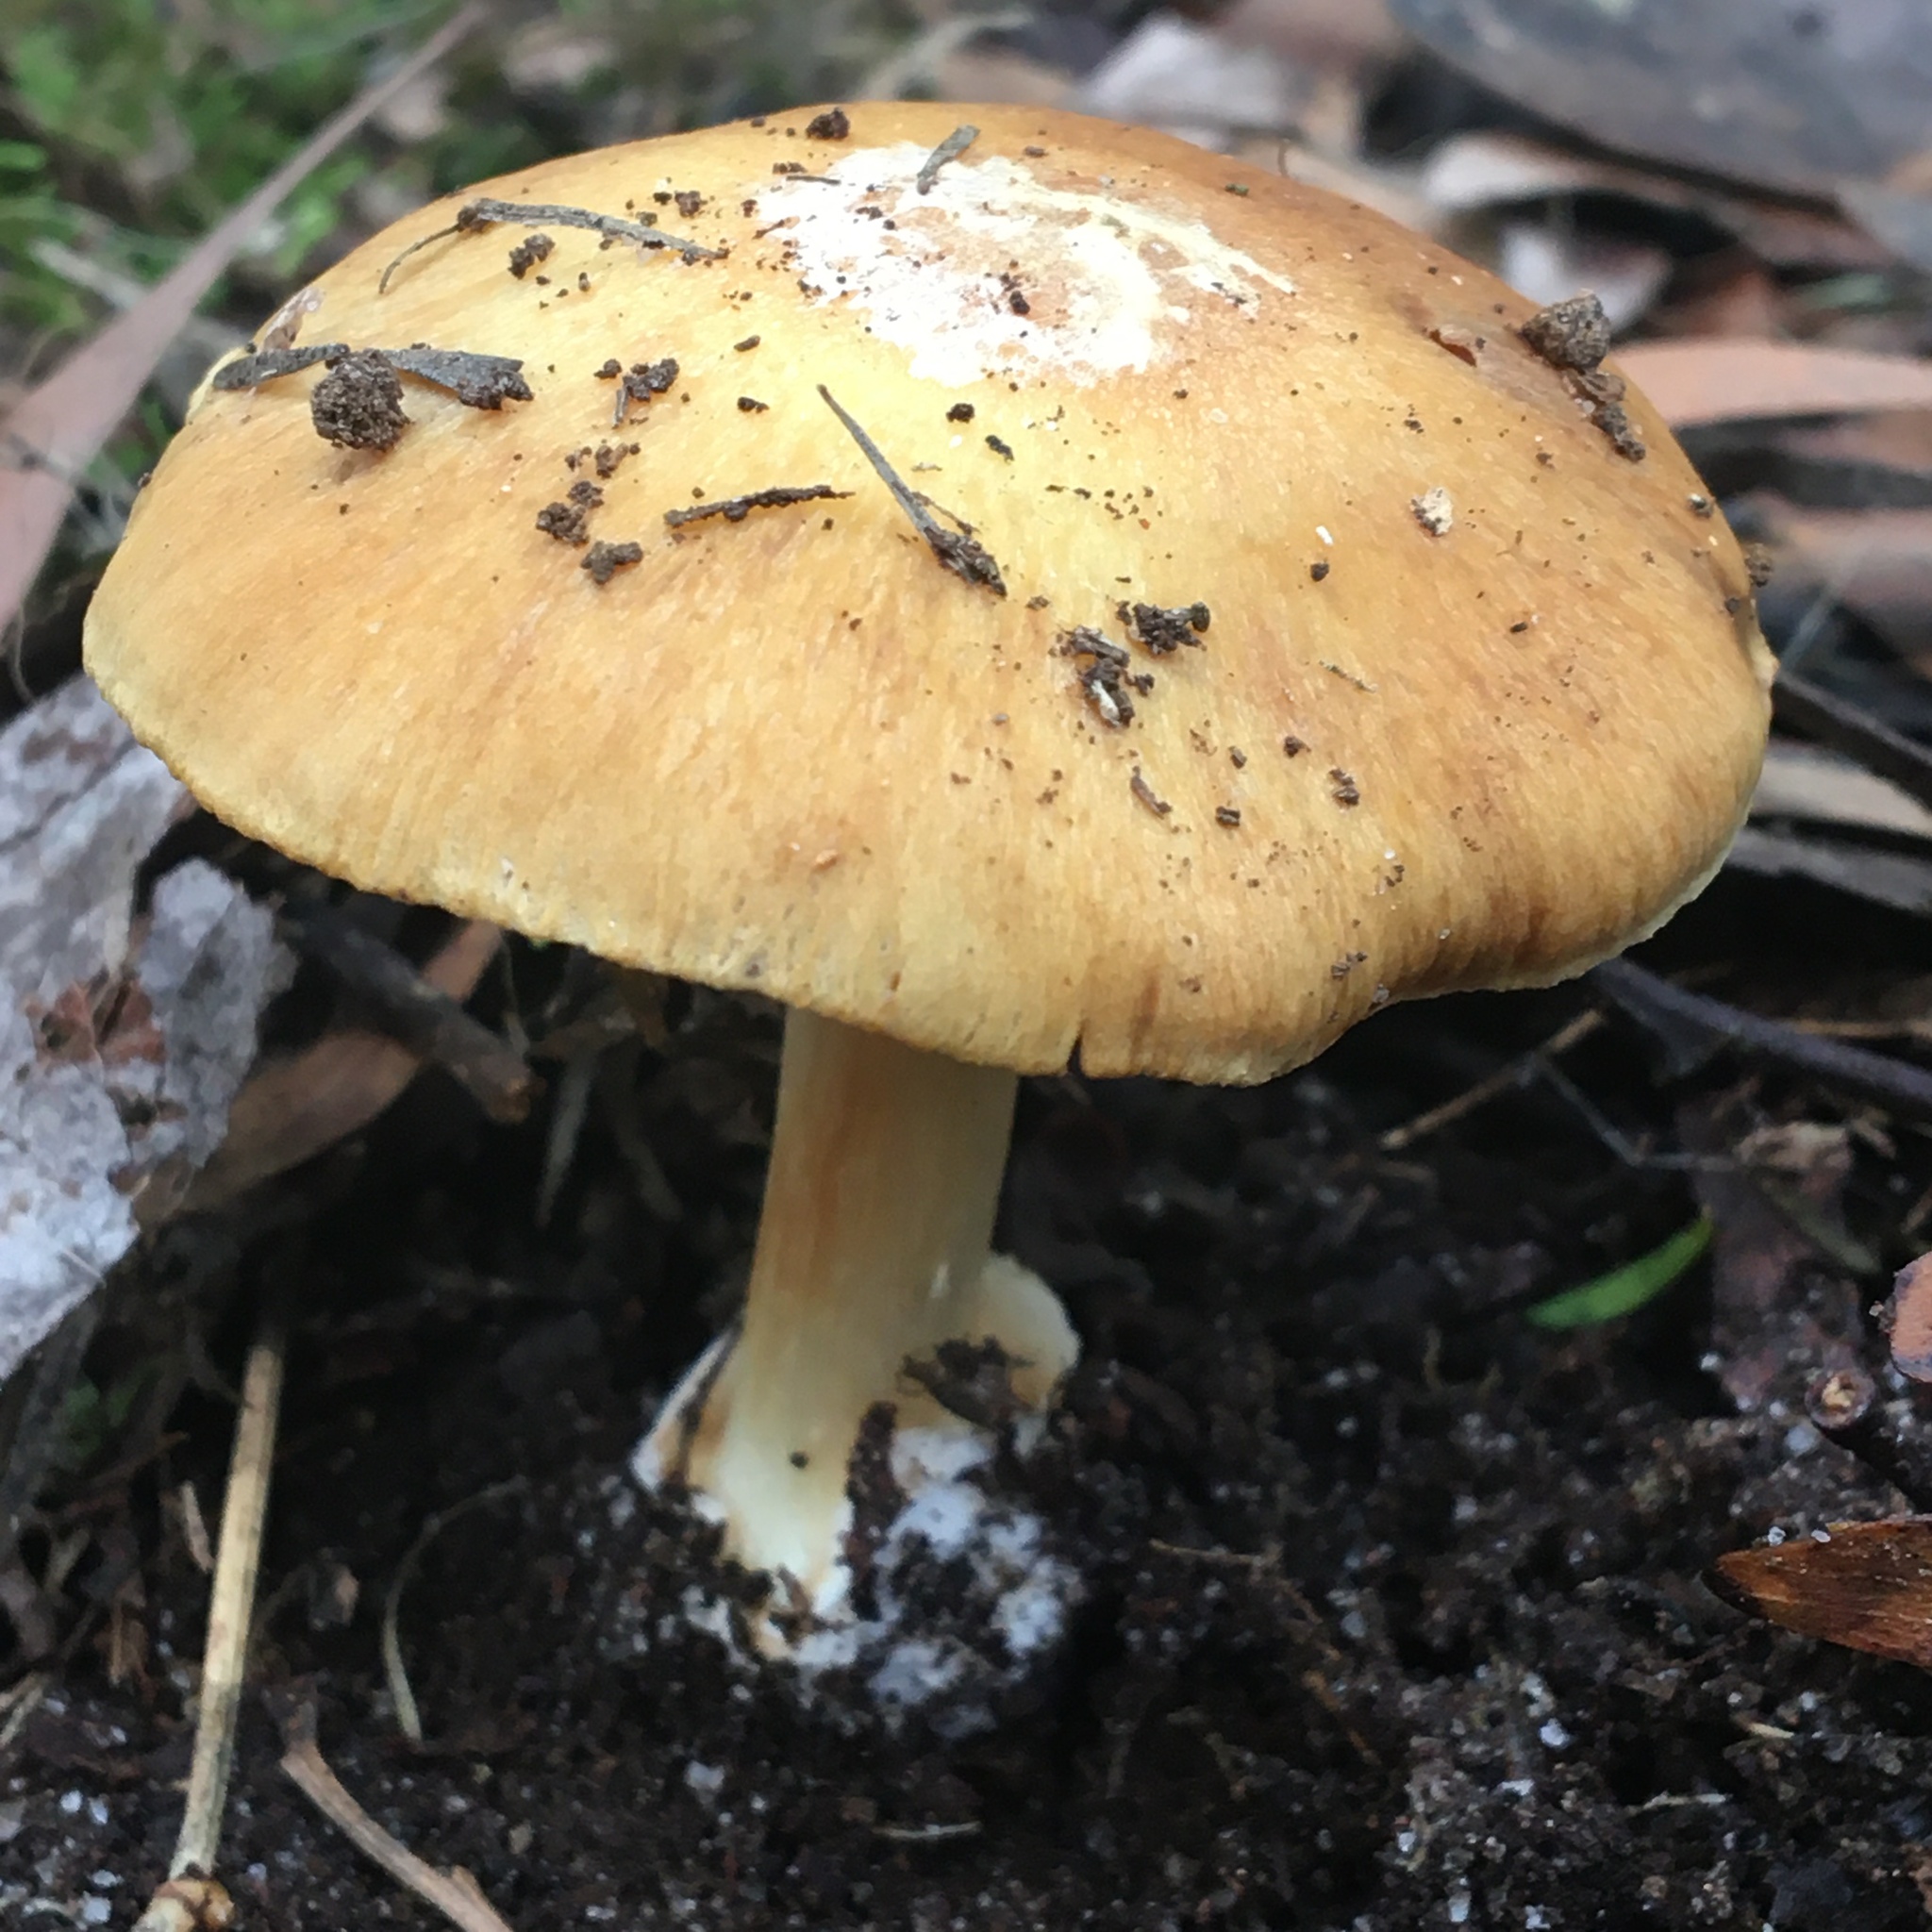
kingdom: Fungi
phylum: Basidiomycota
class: Agaricomycetes
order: Agaricales
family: Cortinariaceae
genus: Cortinarius
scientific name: Cortinarius phalarus
